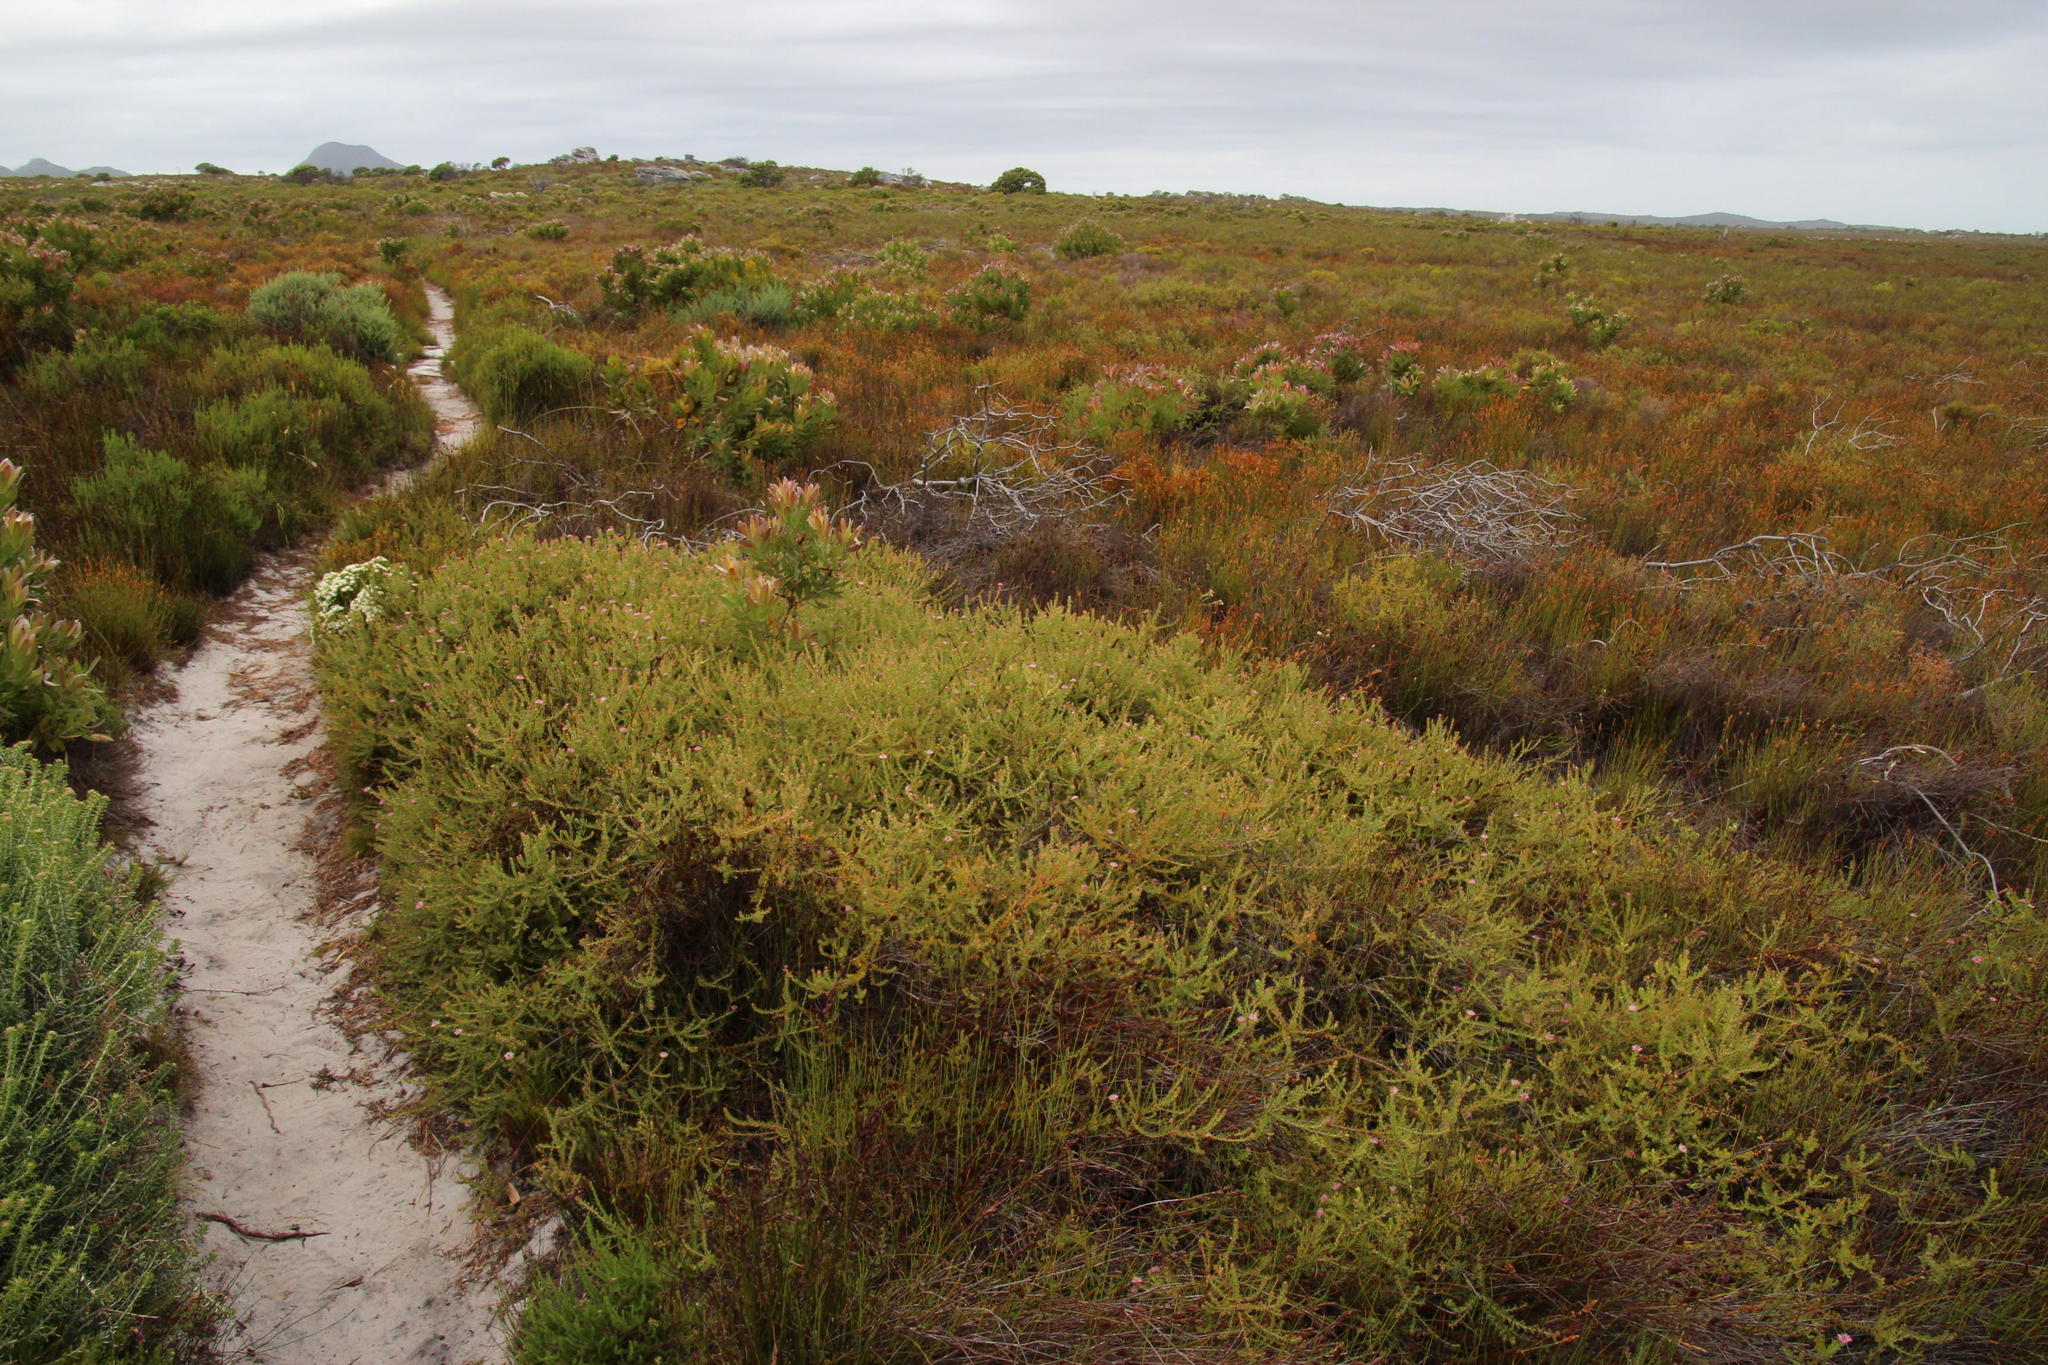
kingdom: Plantae
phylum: Tracheophyta
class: Magnoliopsida
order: Proteales
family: Proteaceae
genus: Diastella
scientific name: Diastella divaricata
